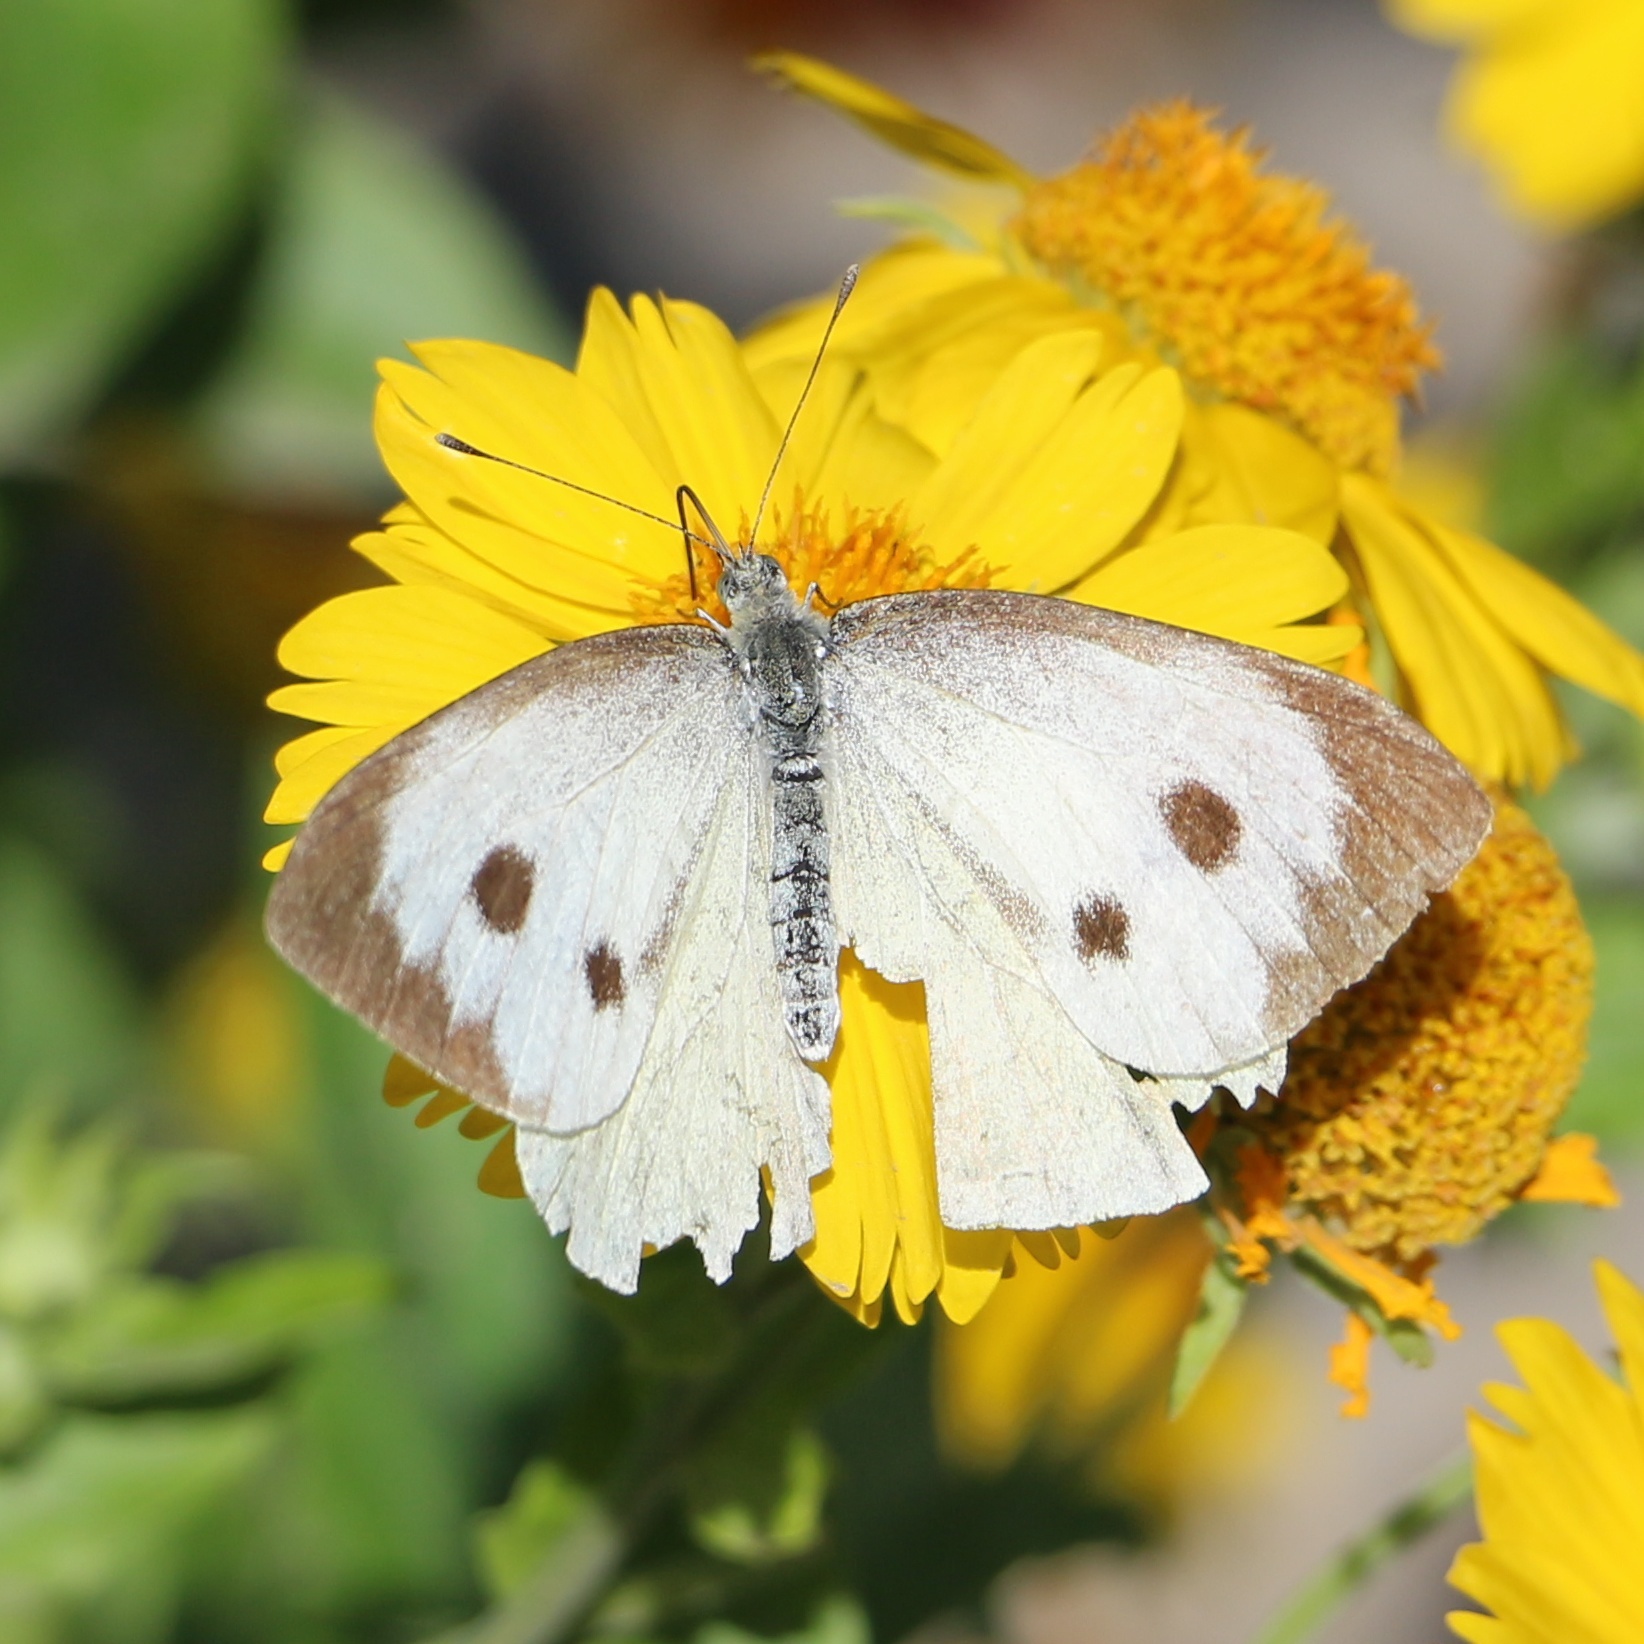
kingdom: Animalia
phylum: Arthropoda
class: Insecta
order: Lepidoptera
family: Pieridae
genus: Pieris
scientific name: Pieris brassicae
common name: Large white
